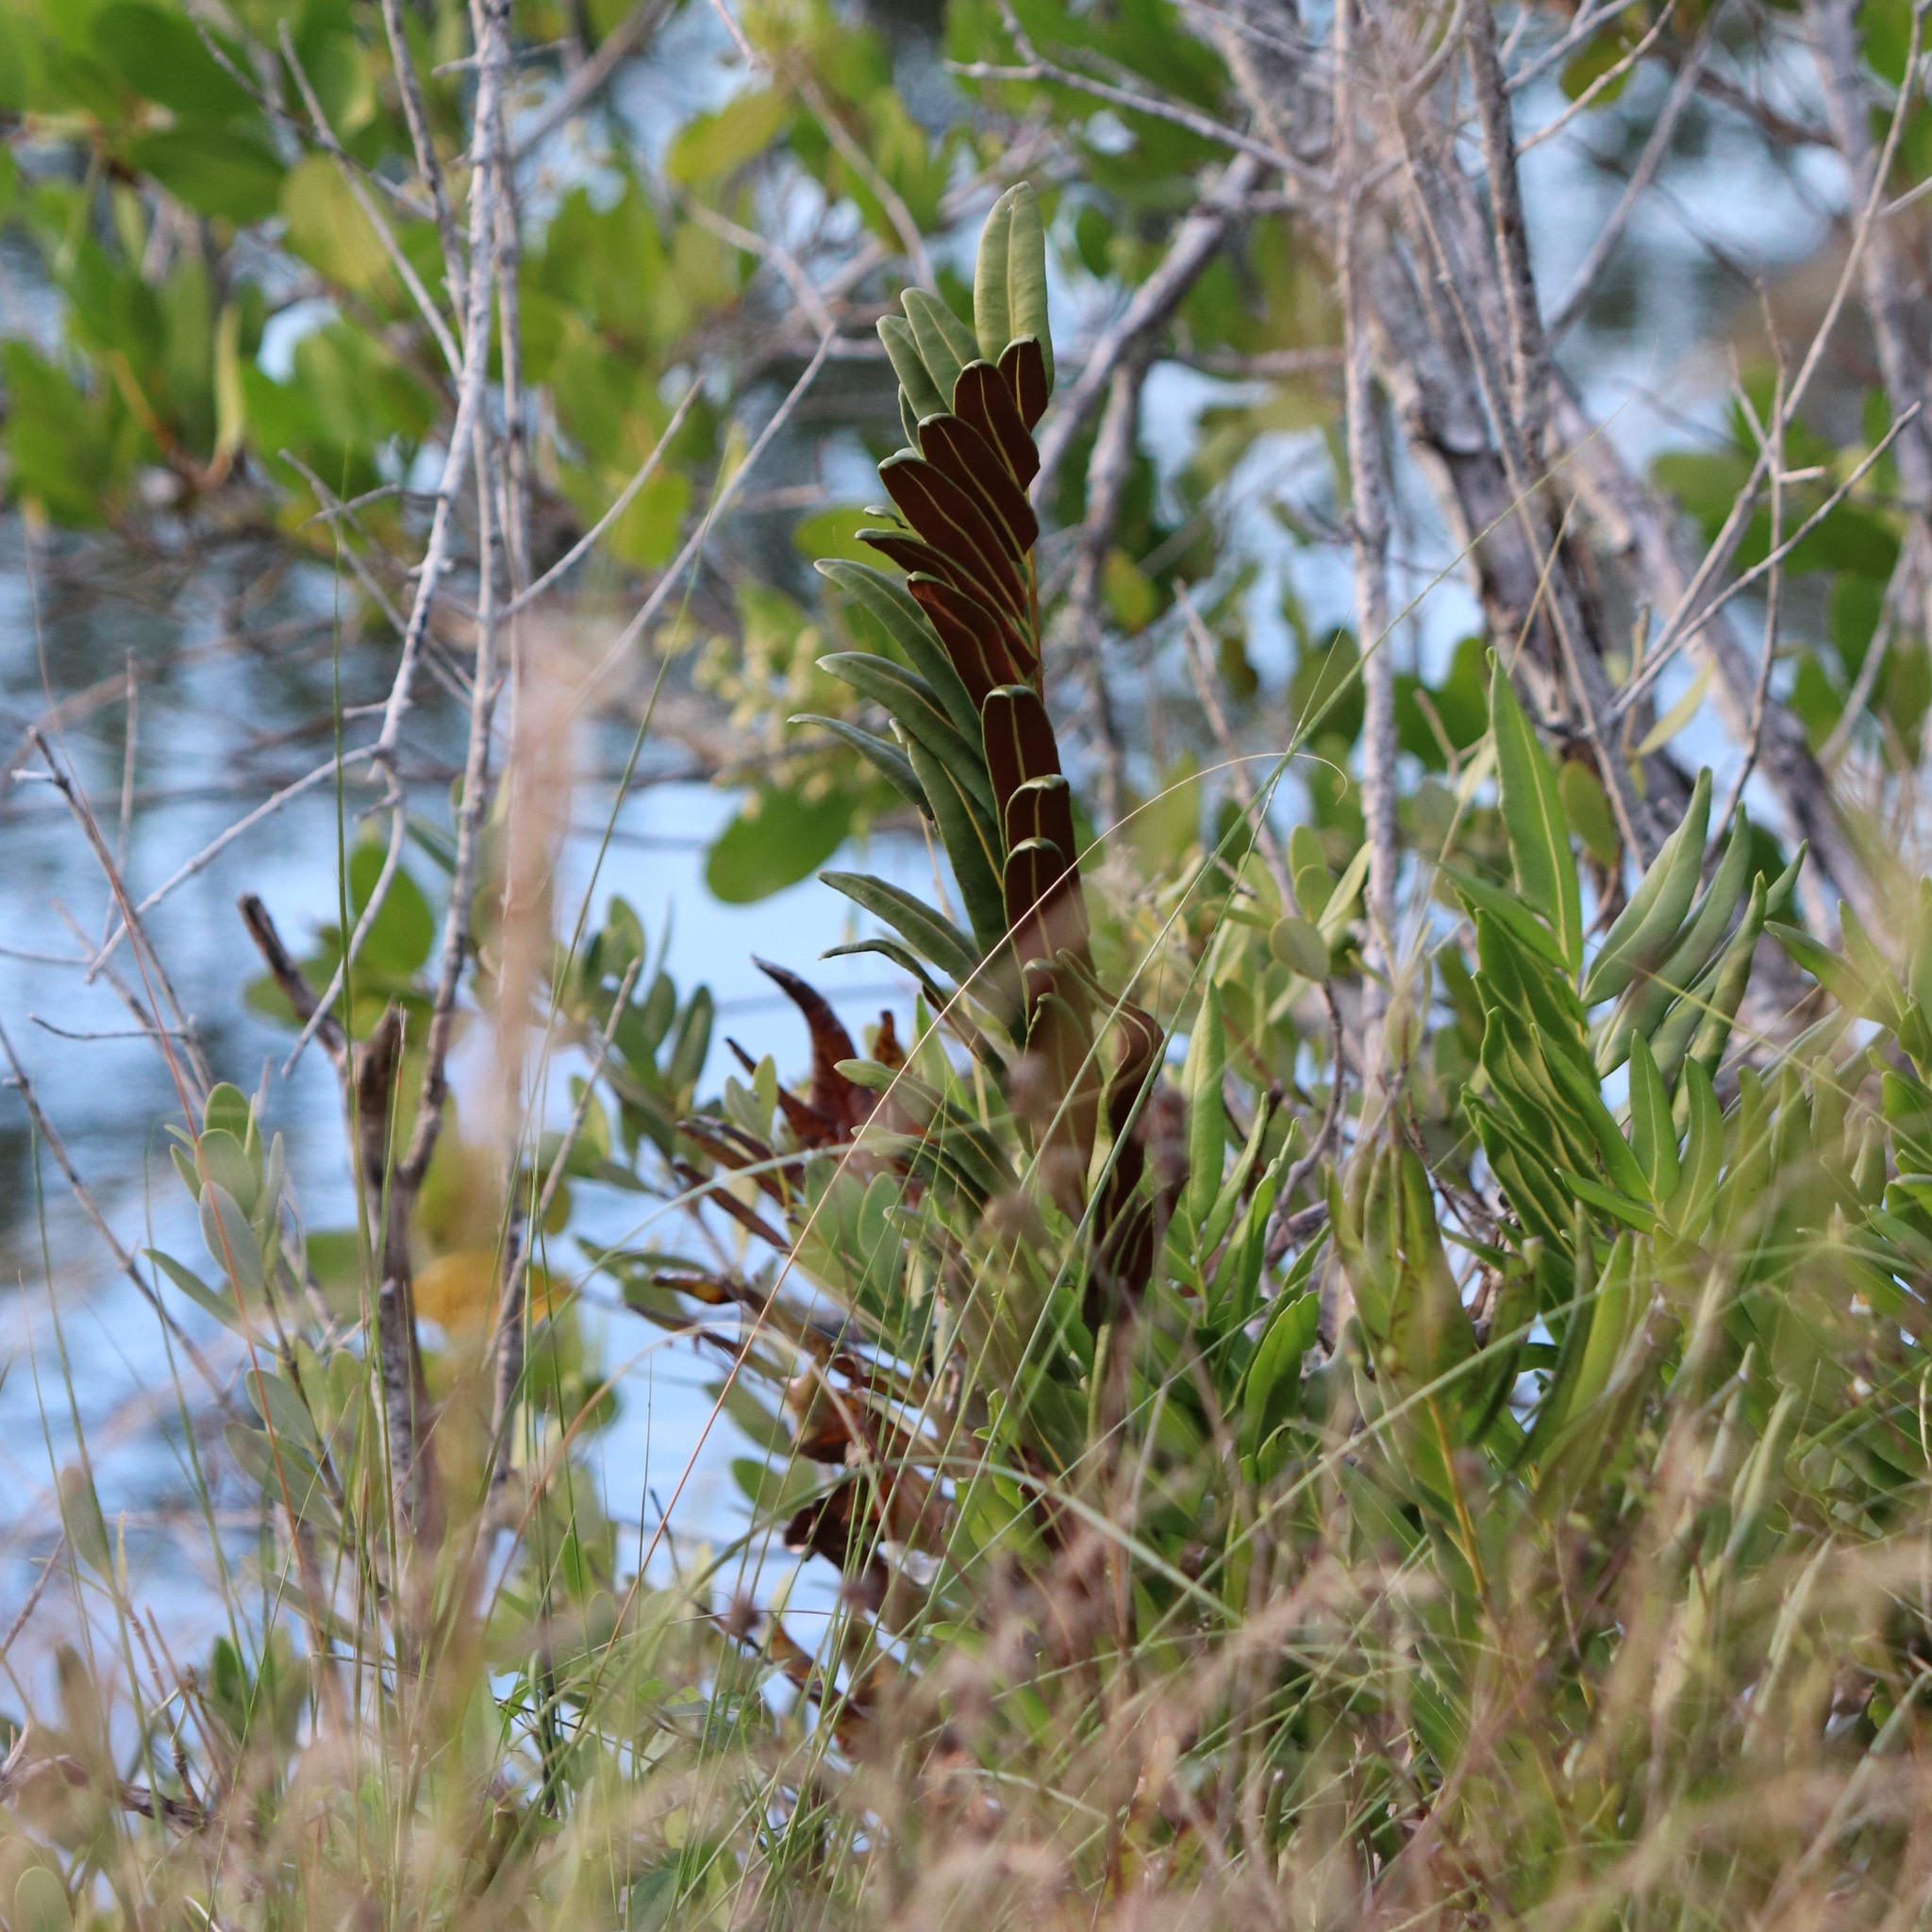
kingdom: Plantae
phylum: Tracheophyta
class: Polypodiopsida
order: Polypodiales
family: Pteridaceae
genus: Acrostichum
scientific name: Acrostichum danaeifolium
